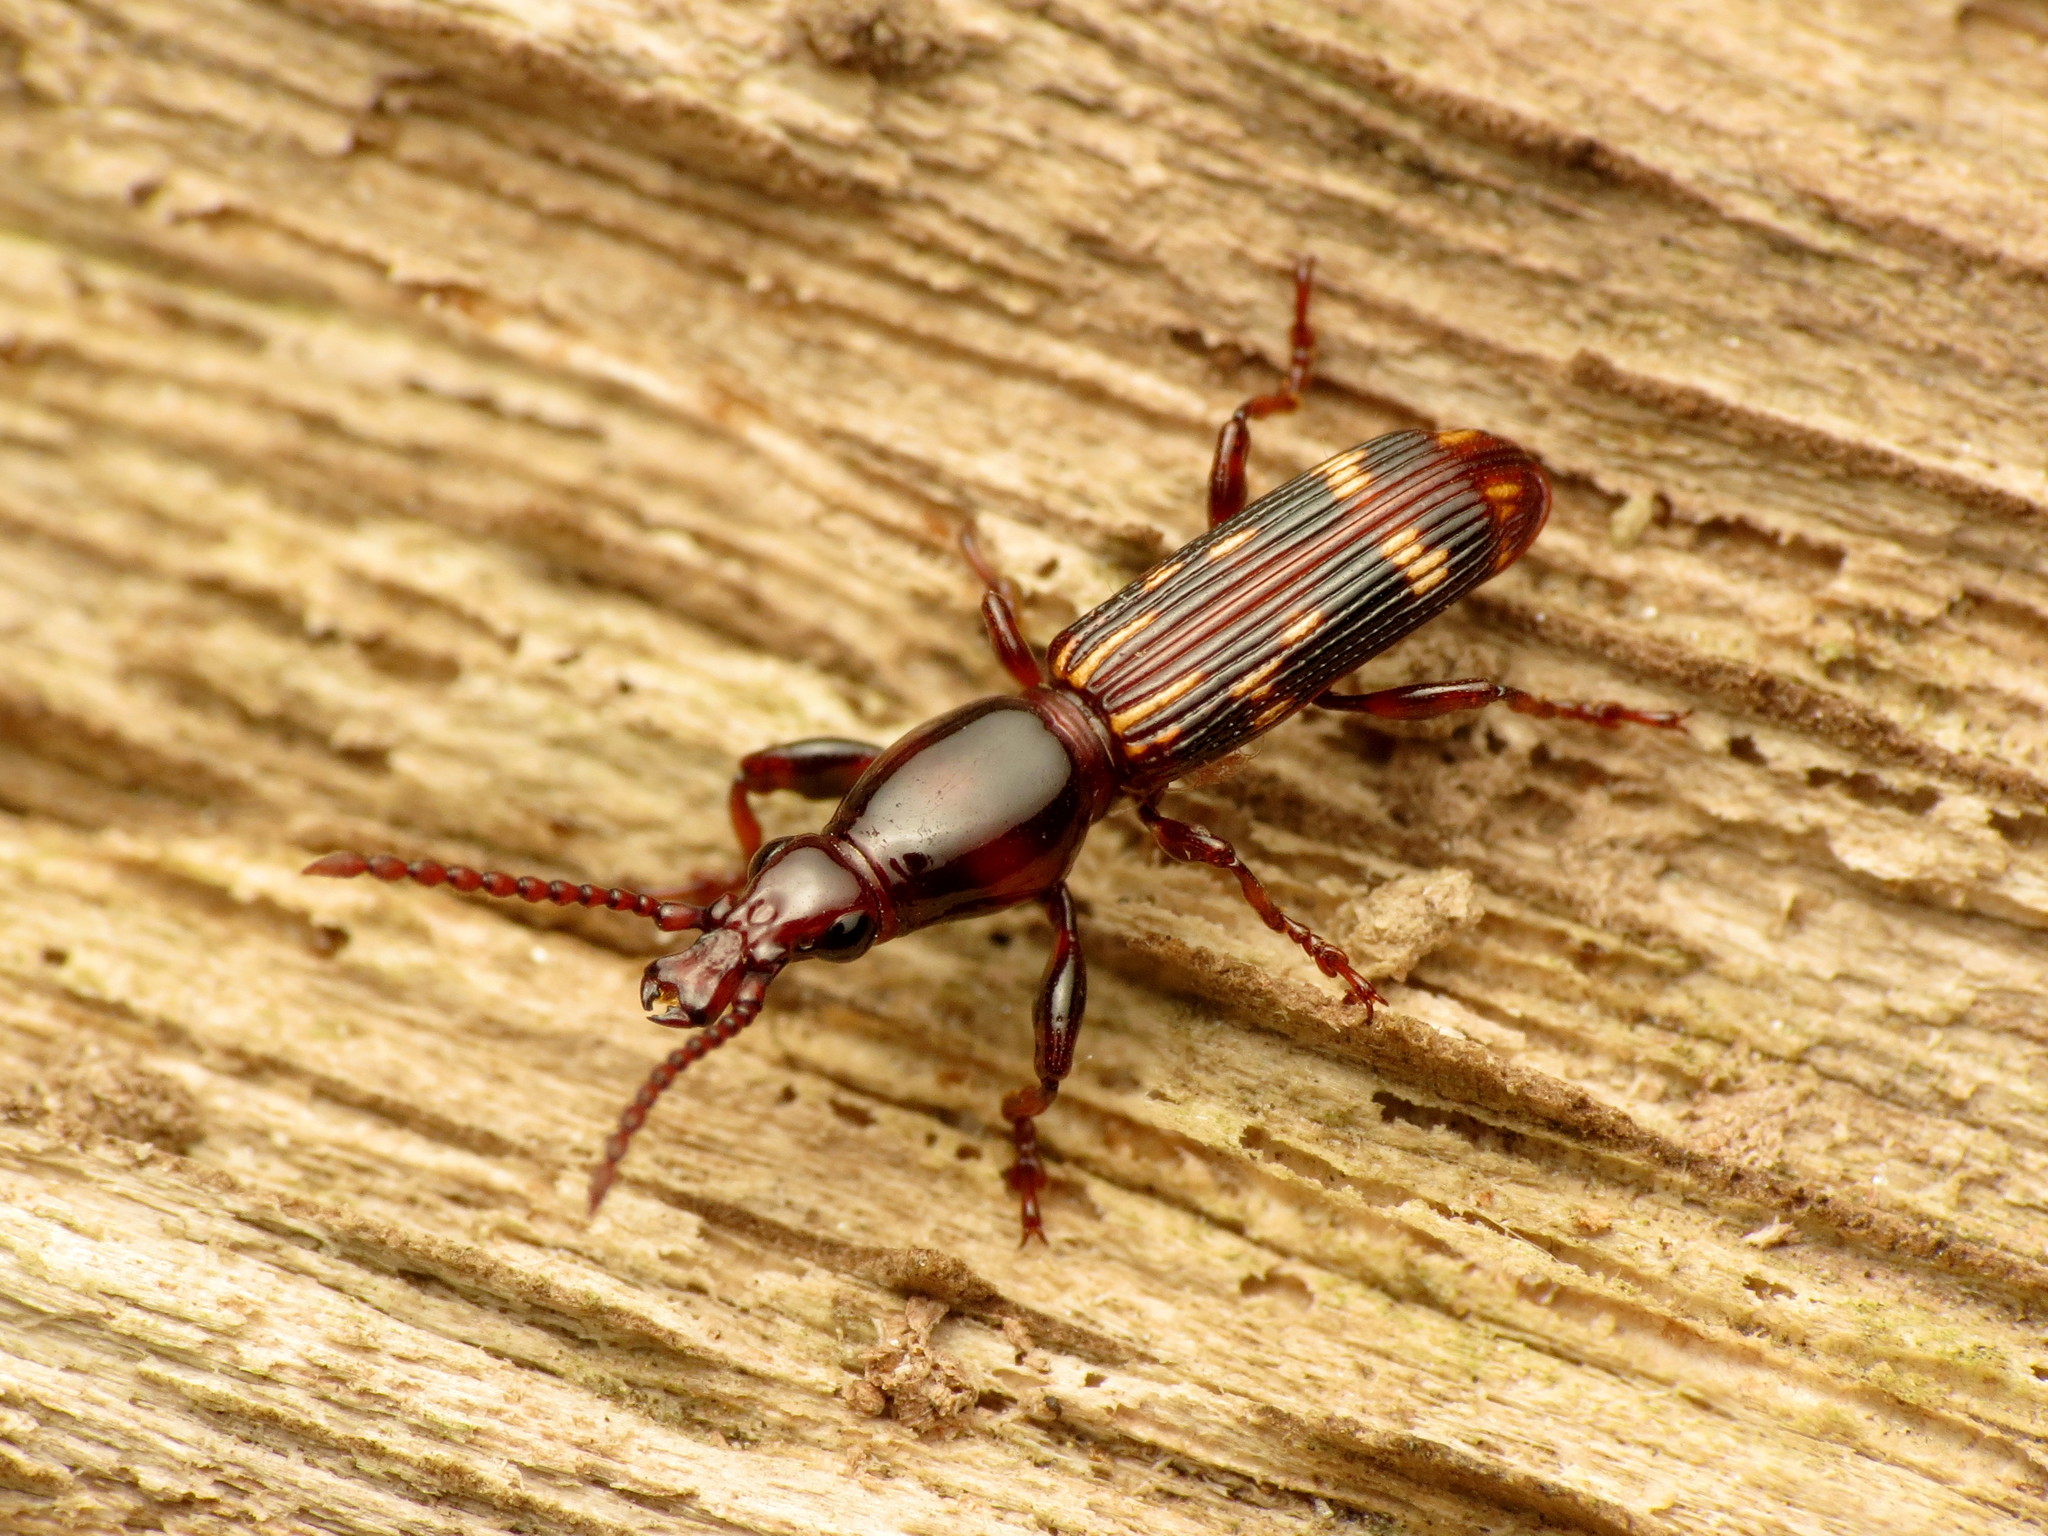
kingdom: Animalia
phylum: Arthropoda
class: Insecta
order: Coleoptera
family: Brentidae
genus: Arrenodes
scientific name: Arrenodes minutus
